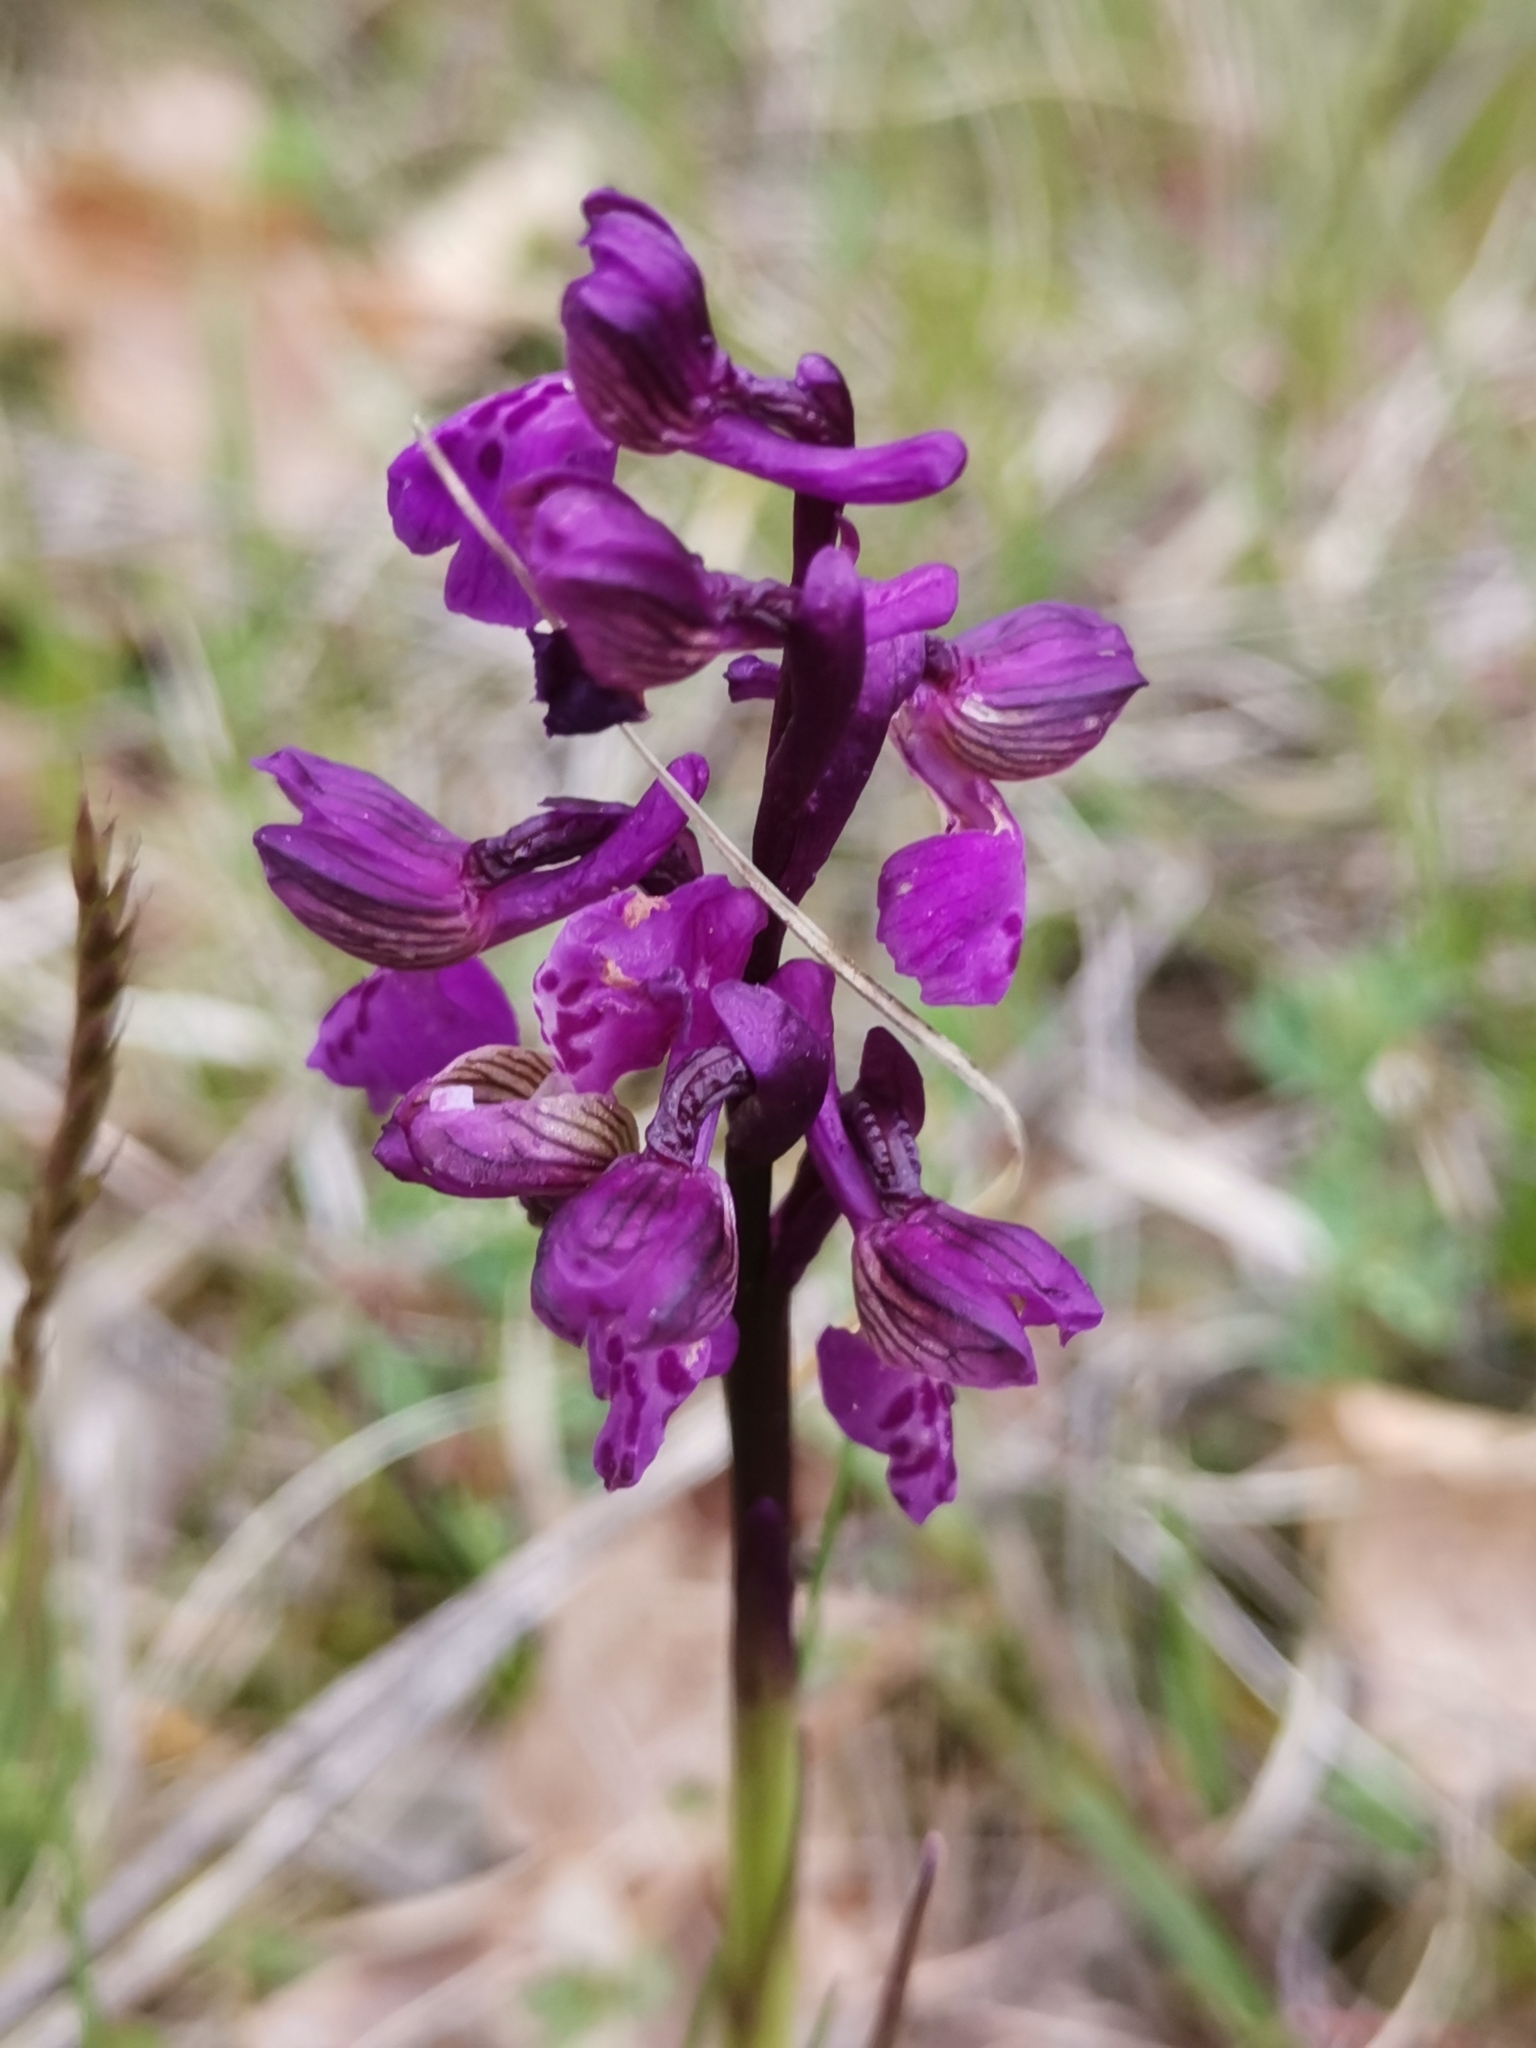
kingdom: Plantae
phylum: Tracheophyta
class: Liliopsida
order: Asparagales
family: Orchidaceae
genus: Anacamptis
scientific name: Anacamptis morio
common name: Green-winged orchid
